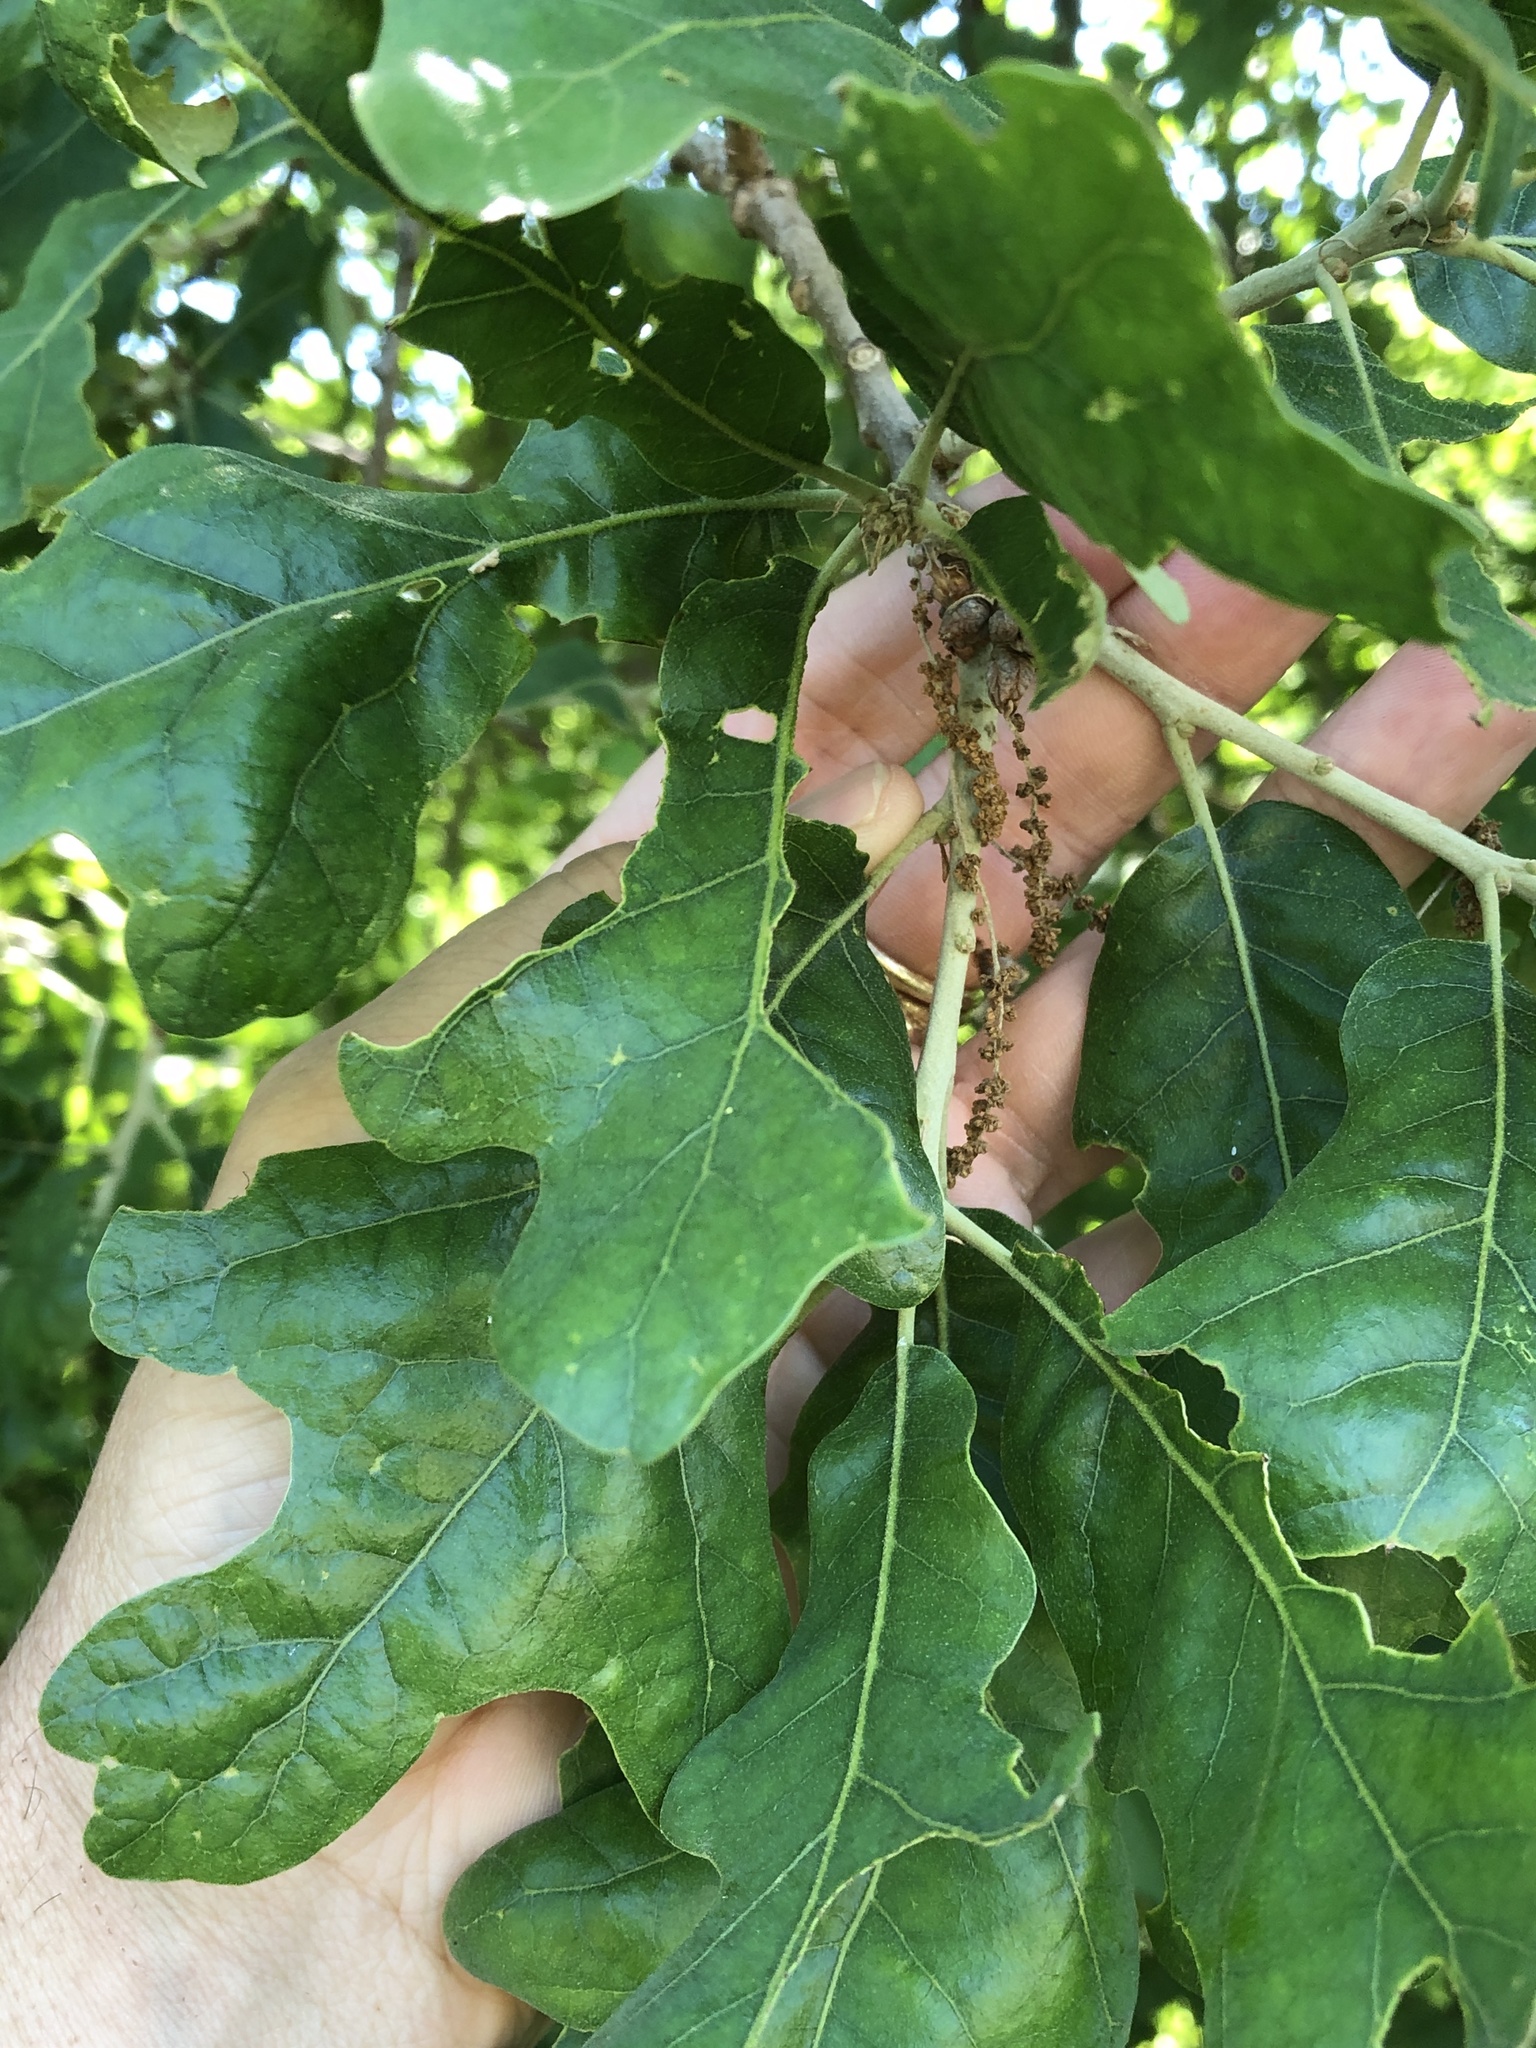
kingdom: Plantae
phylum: Tracheophyta
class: Magnoliopsida
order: Fagales
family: Fagaceae
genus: Quercus
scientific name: Quercus stellata
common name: Post oak
